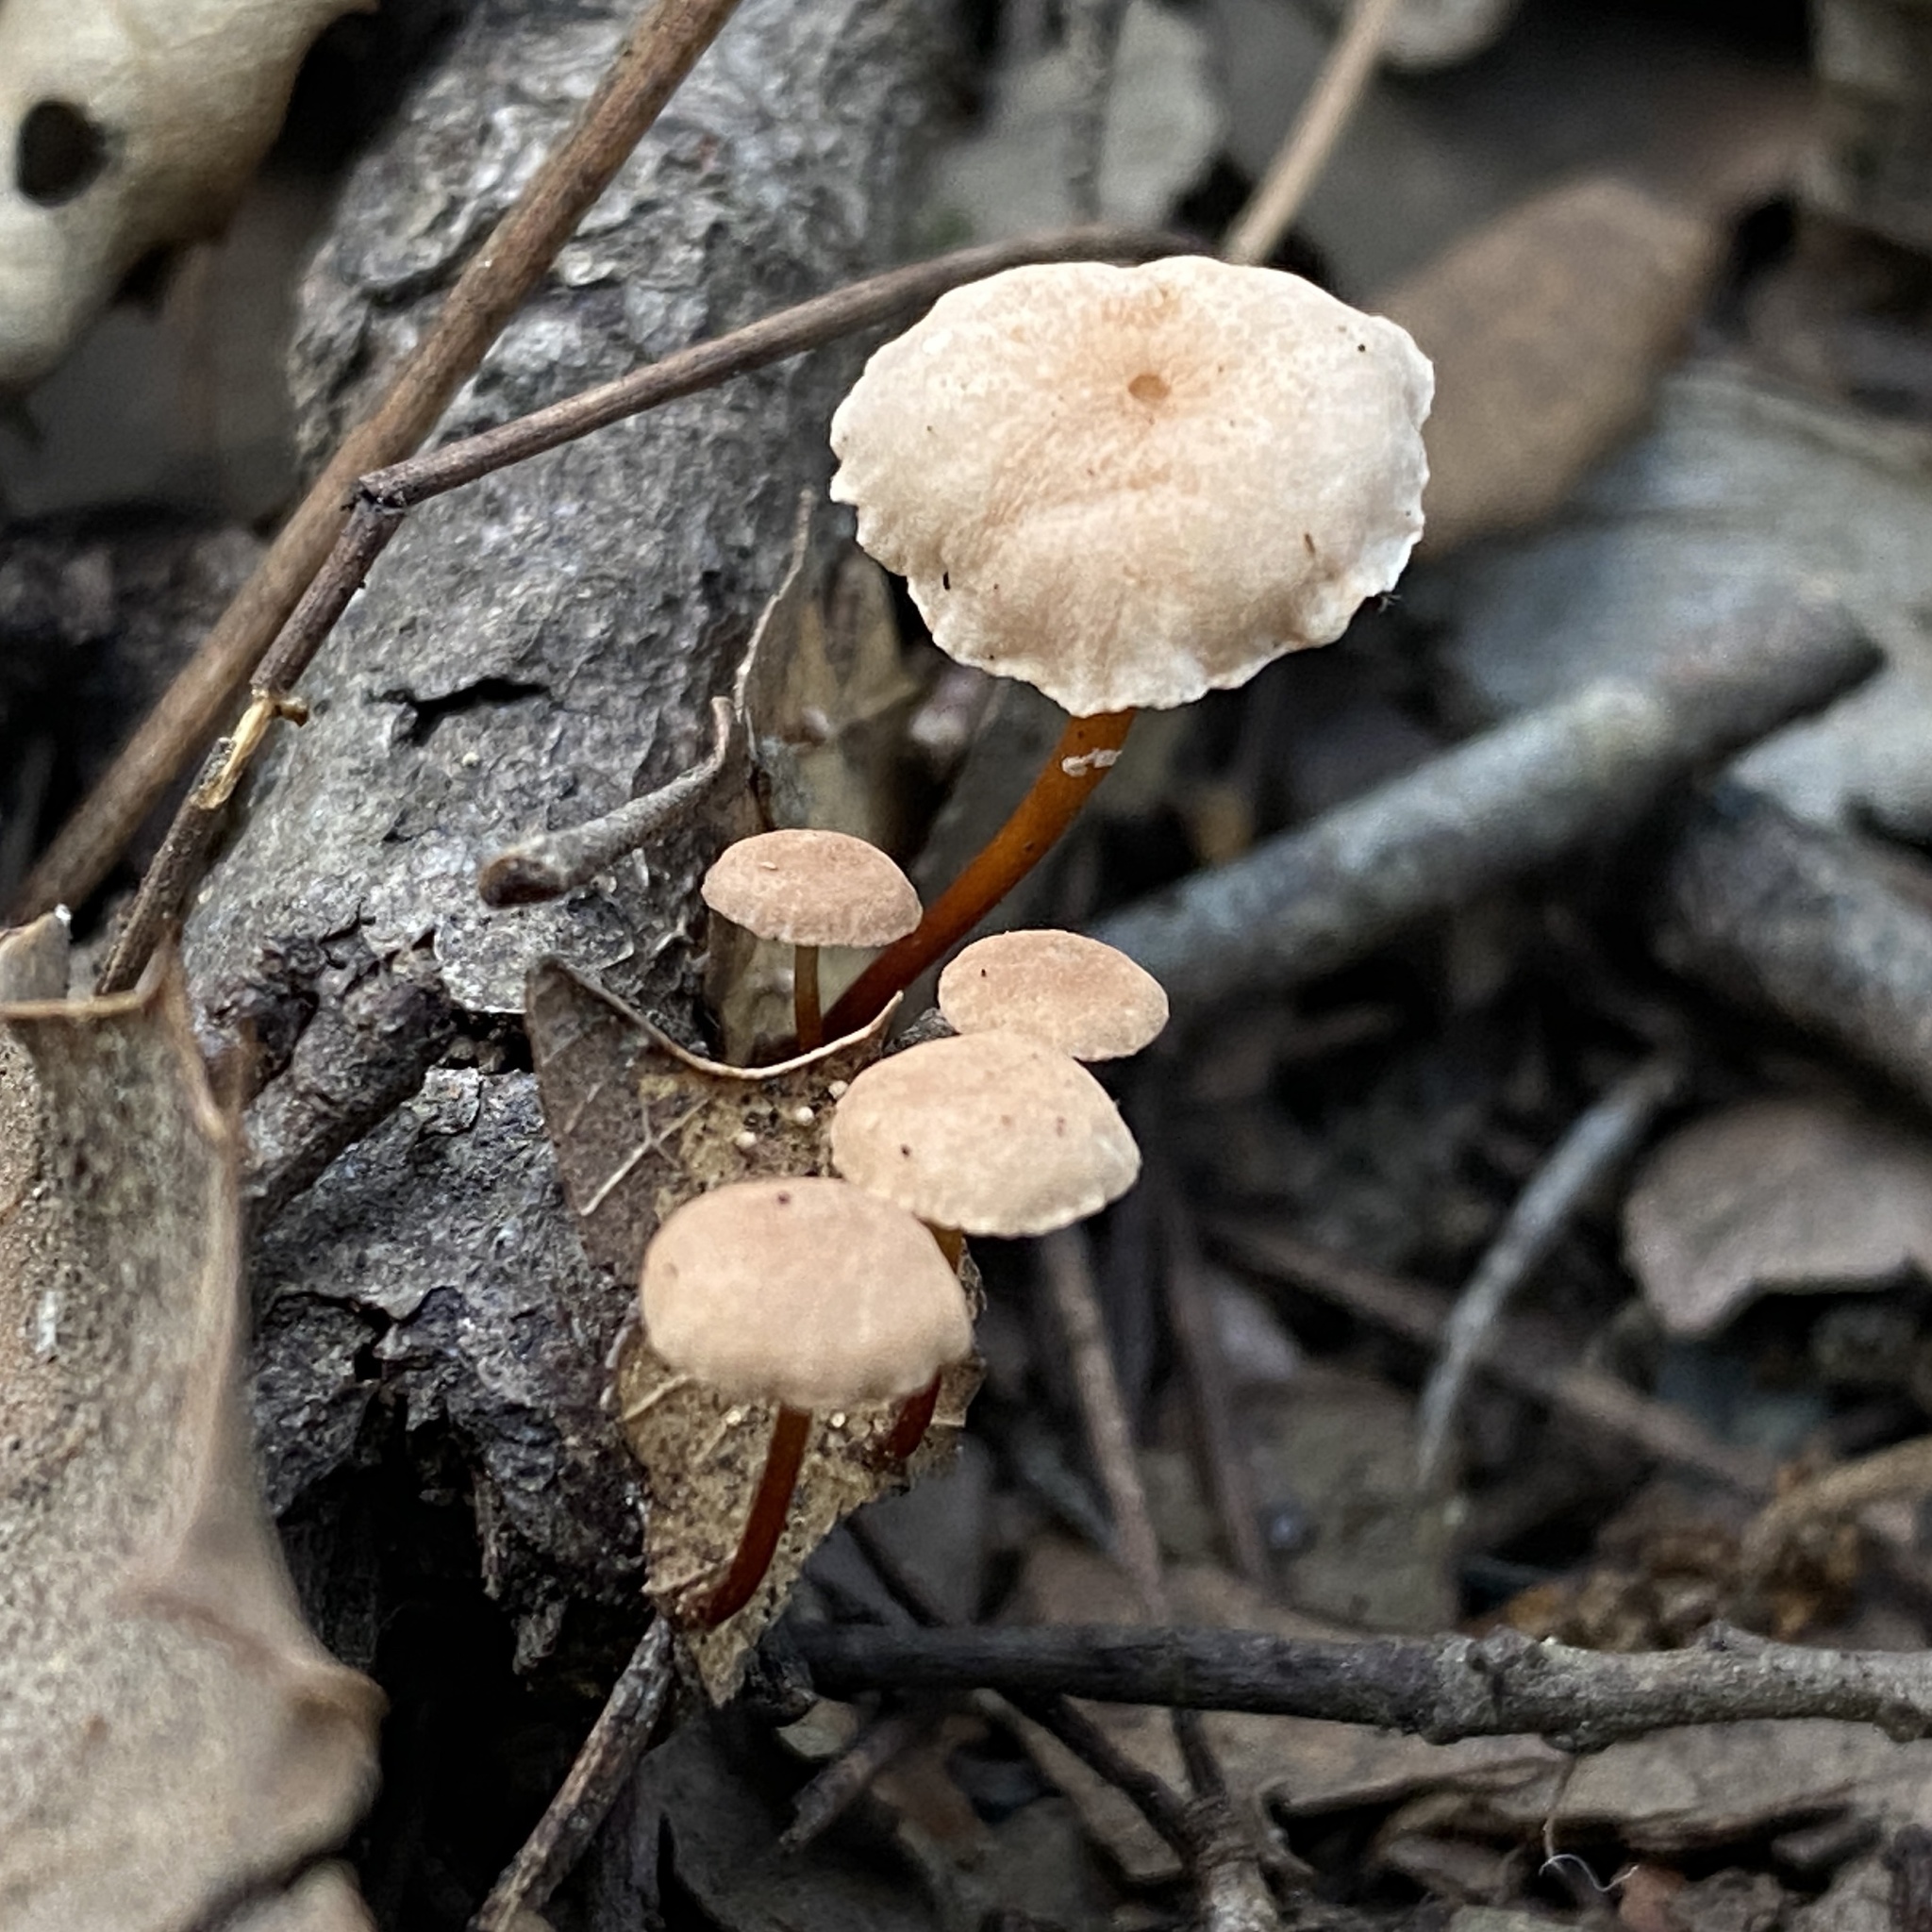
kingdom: Fungi
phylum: Basidiomycota
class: Agaricomycetes
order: Agaricales
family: Omphalotaceae
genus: Mycetinis
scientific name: Mycetinis scorodonius
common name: Vampires bane
